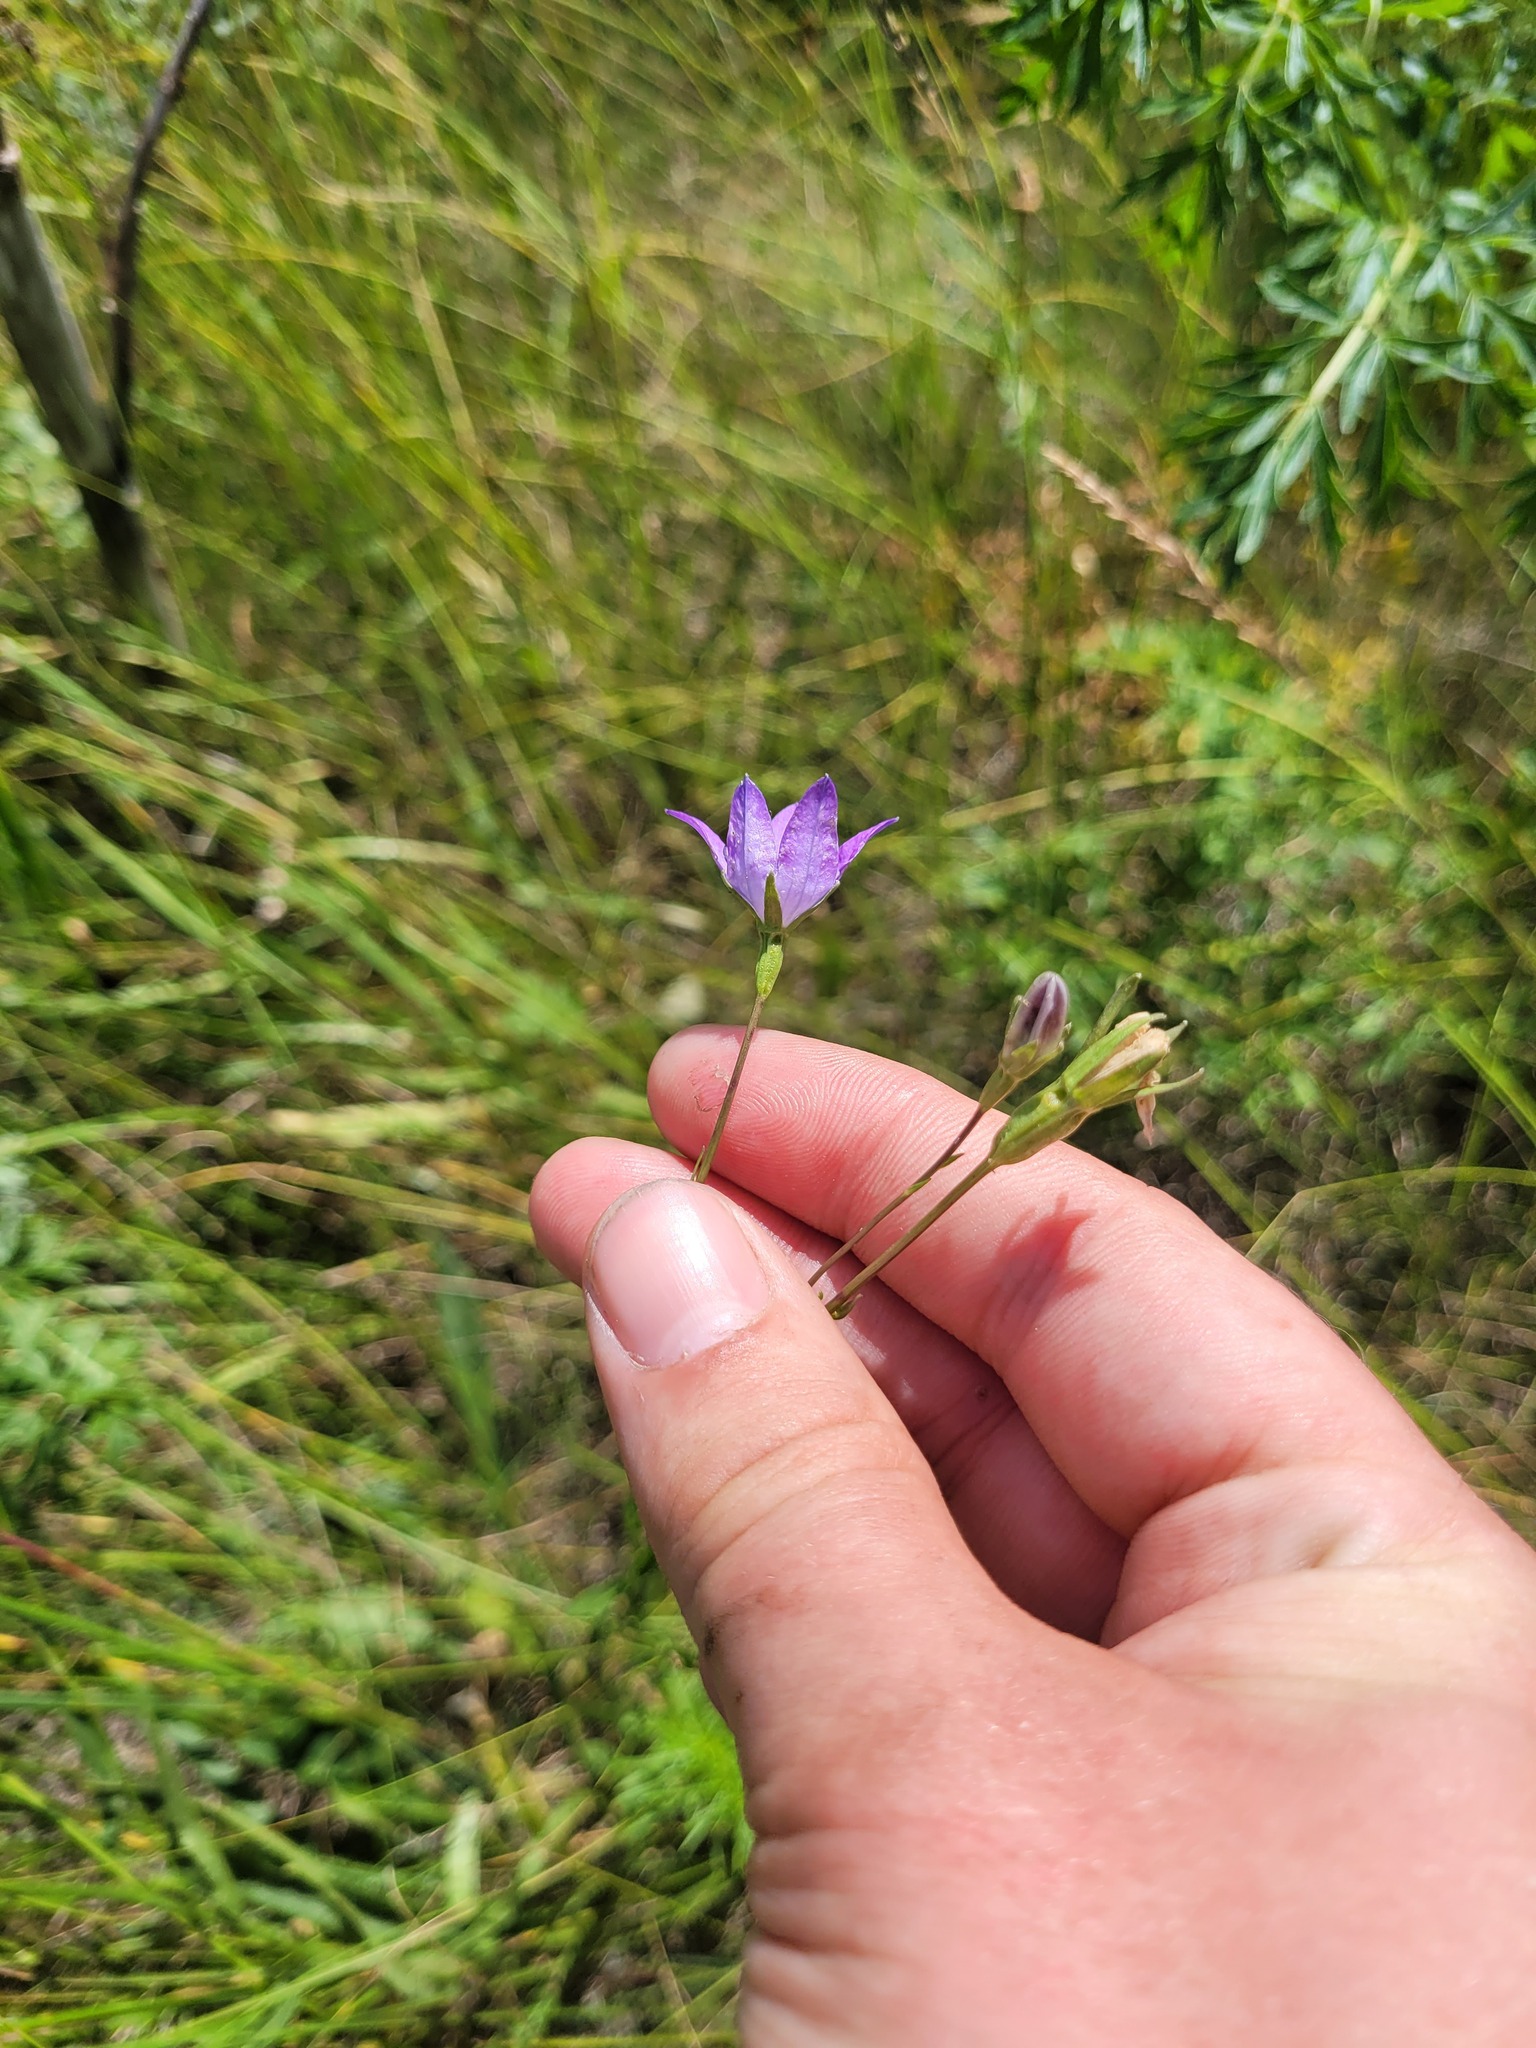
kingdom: Plantae
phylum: Tracheophyta
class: Magnoliopsida
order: Asterales
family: Campanulaceae
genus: Campanula
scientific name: Campanula stevenii
